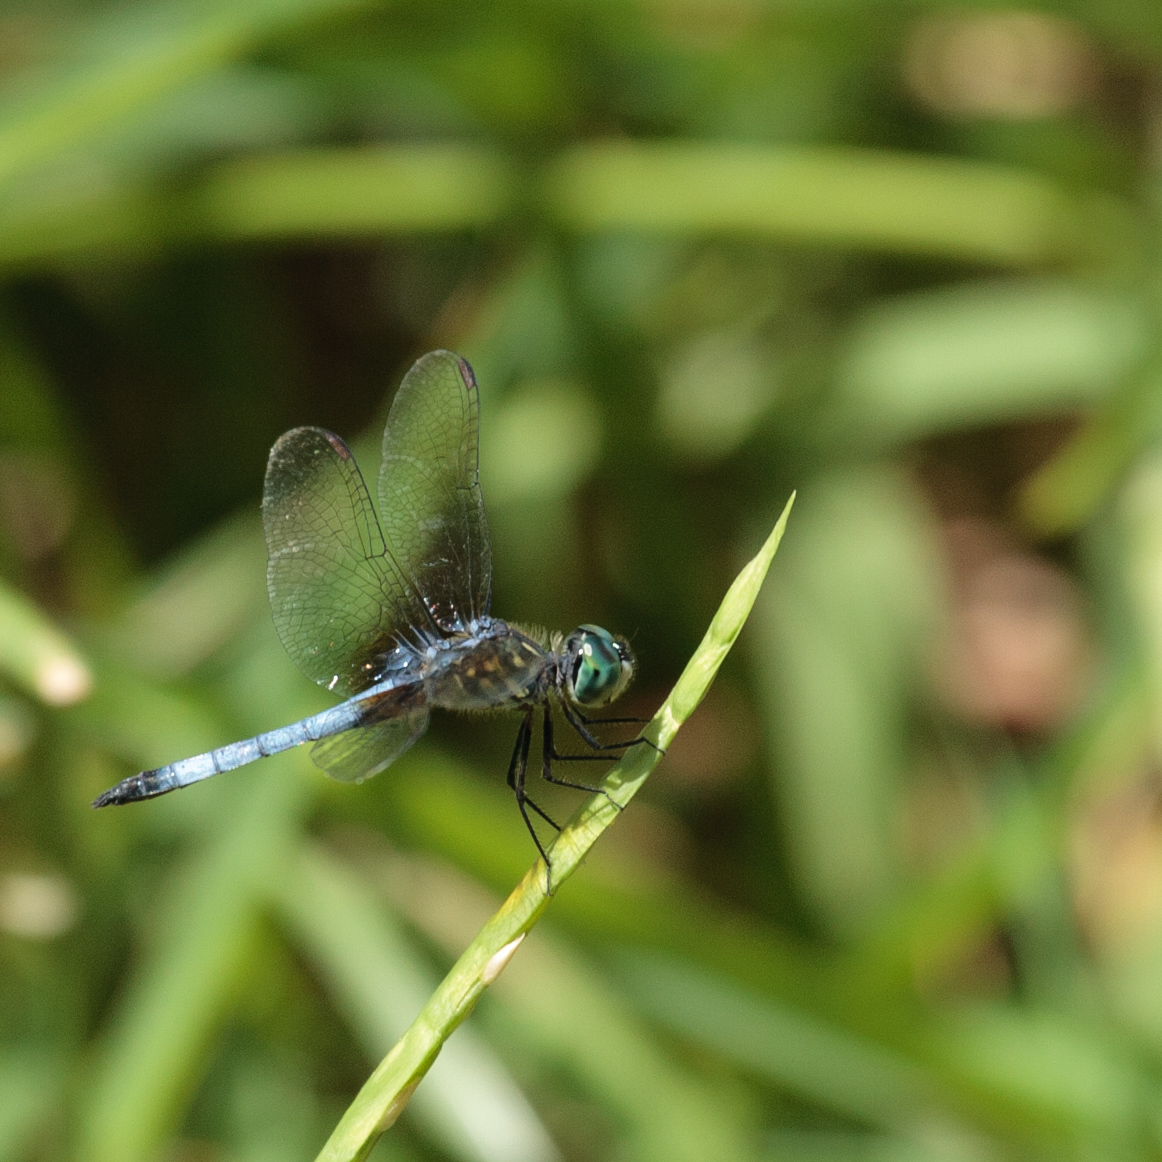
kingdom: Animalia
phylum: Arthropoda
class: Insecta
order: Odonata
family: Libellulidae
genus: Pachydiplax
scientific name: Pachydiplax longipennis
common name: Blue dasher
